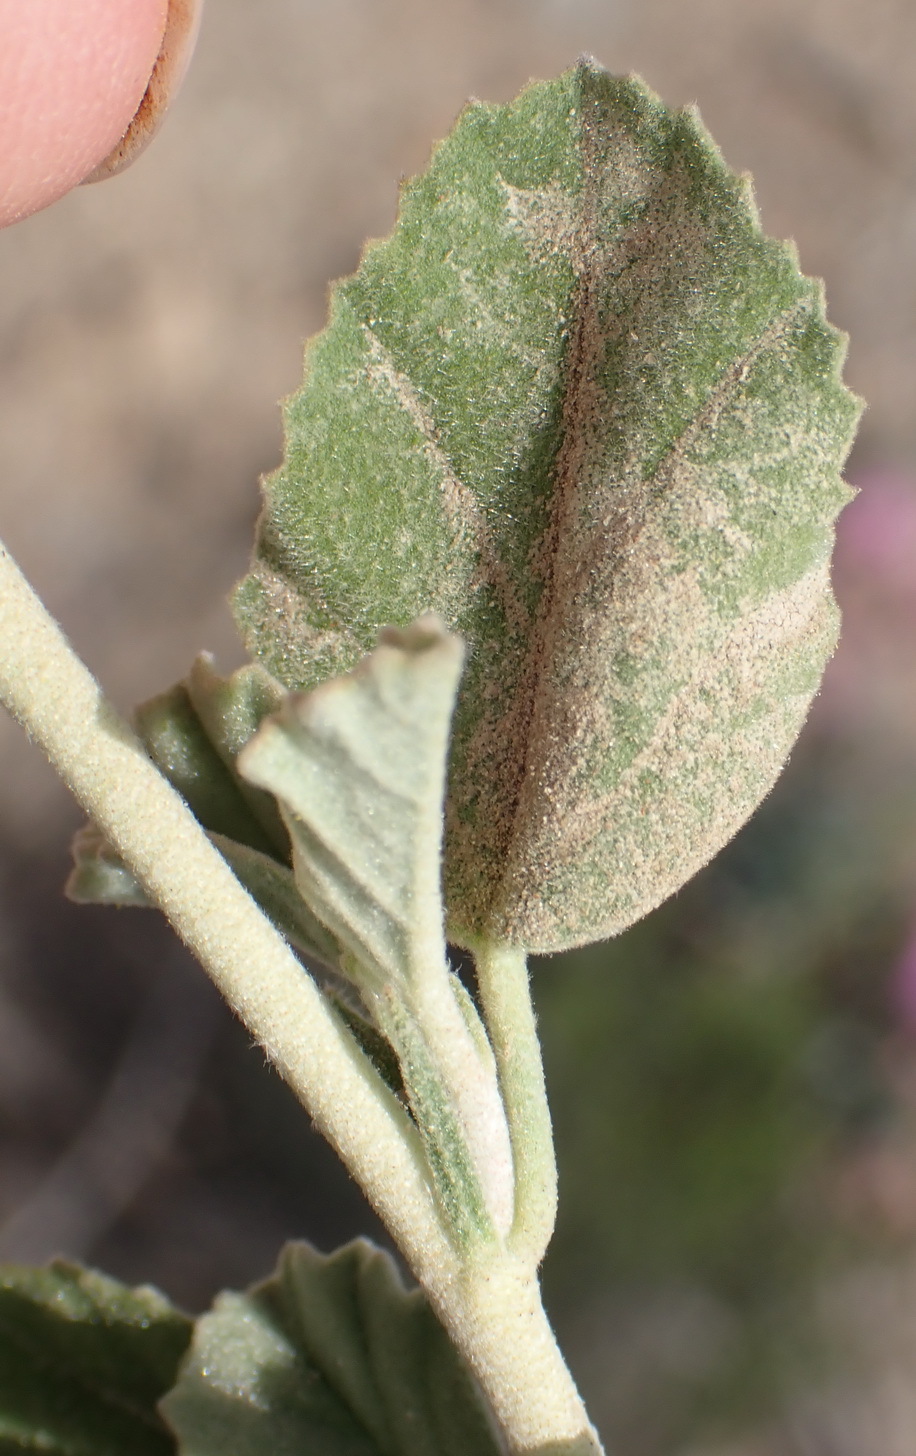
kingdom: Plantae
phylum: Tracheophyta
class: Magnoliopsida
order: Malvales
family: Malvaceae
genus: Hermannia
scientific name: Hermannia althaeifolia
